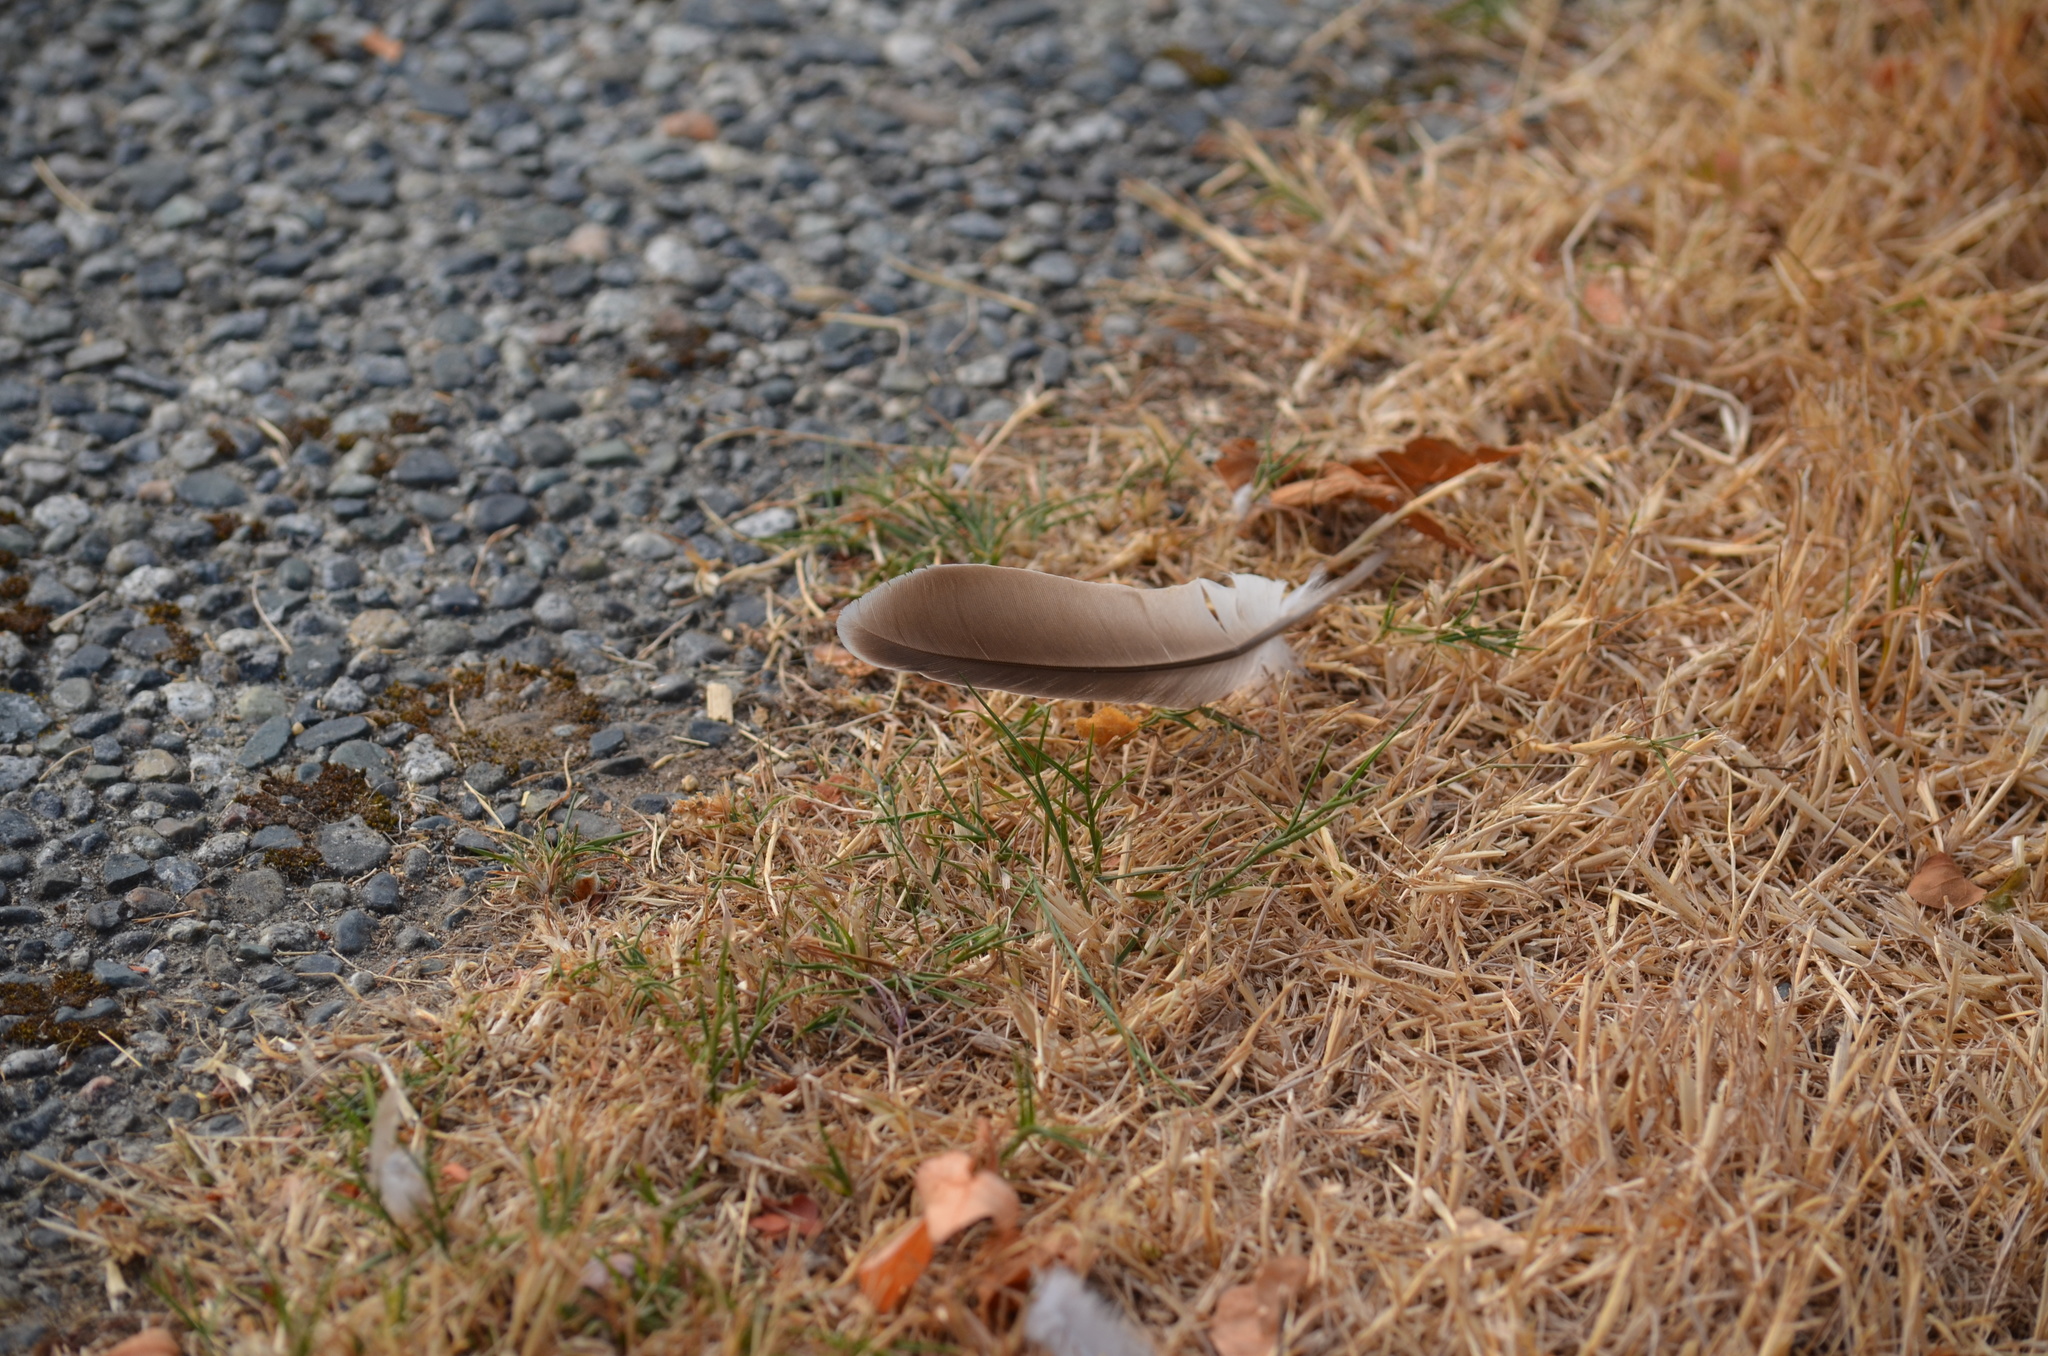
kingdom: Animalia
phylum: Chordata
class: Aves
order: Columbiformes
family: Columbidae
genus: Streptopelia
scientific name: Streptopelia decaocto
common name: Eurasian collared dove
